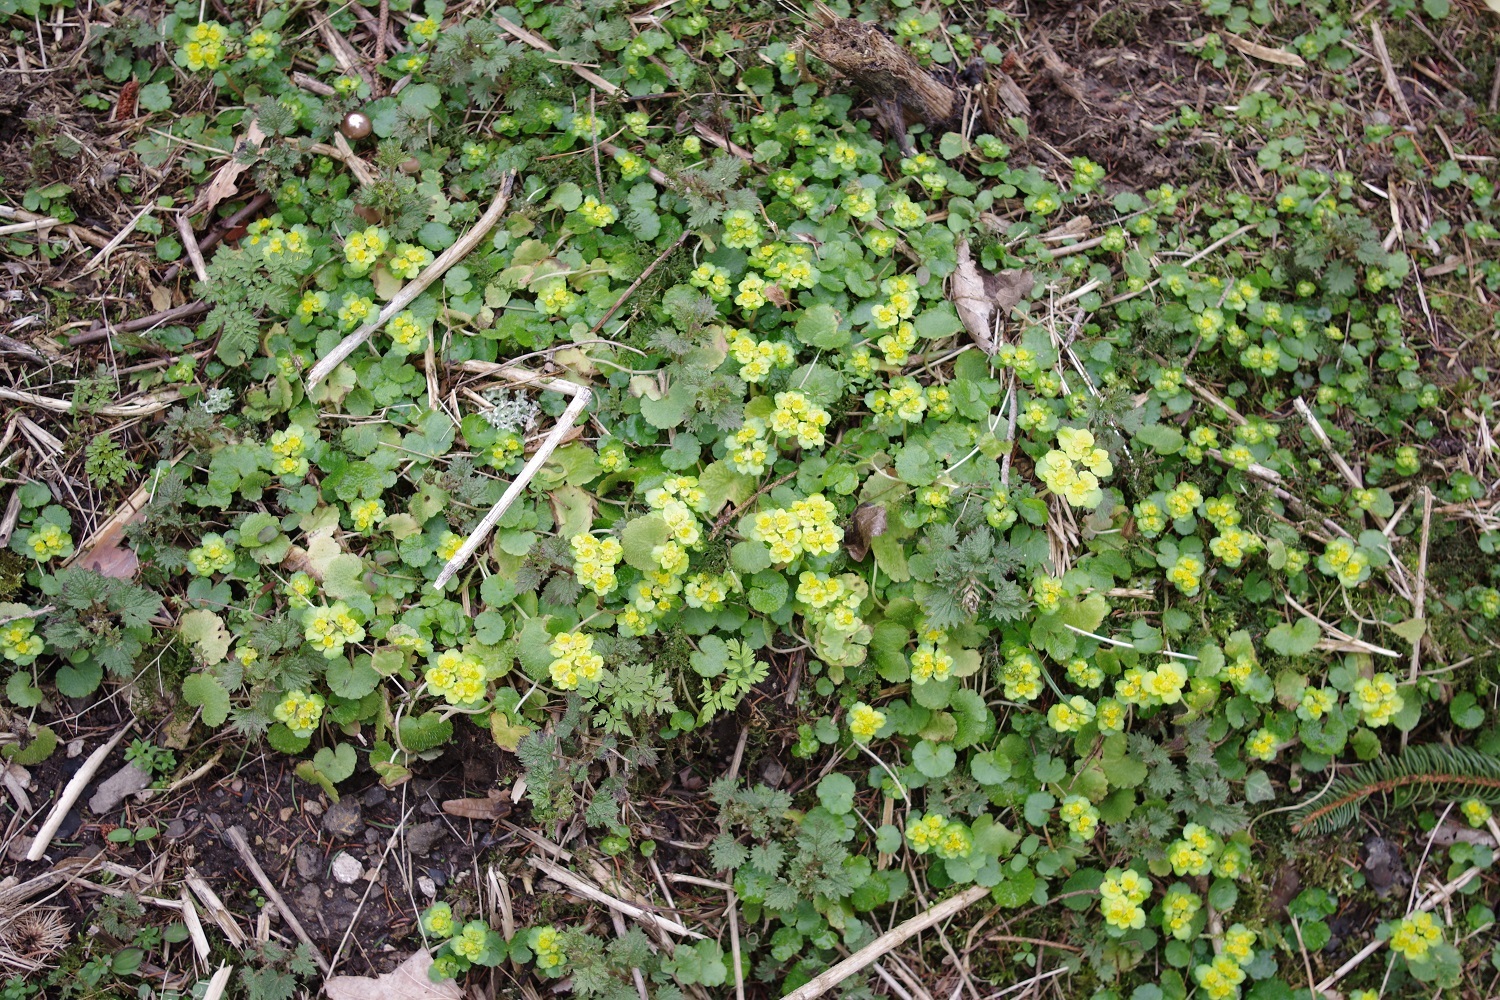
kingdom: Plantae
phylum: Tracheophyta
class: Magnoliopsida
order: Saxifragales
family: Saxifragaceae
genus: Chrysosplenium
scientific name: Chrysosplenium alternifolium
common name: Alternate-leaved golden-saxifrage
